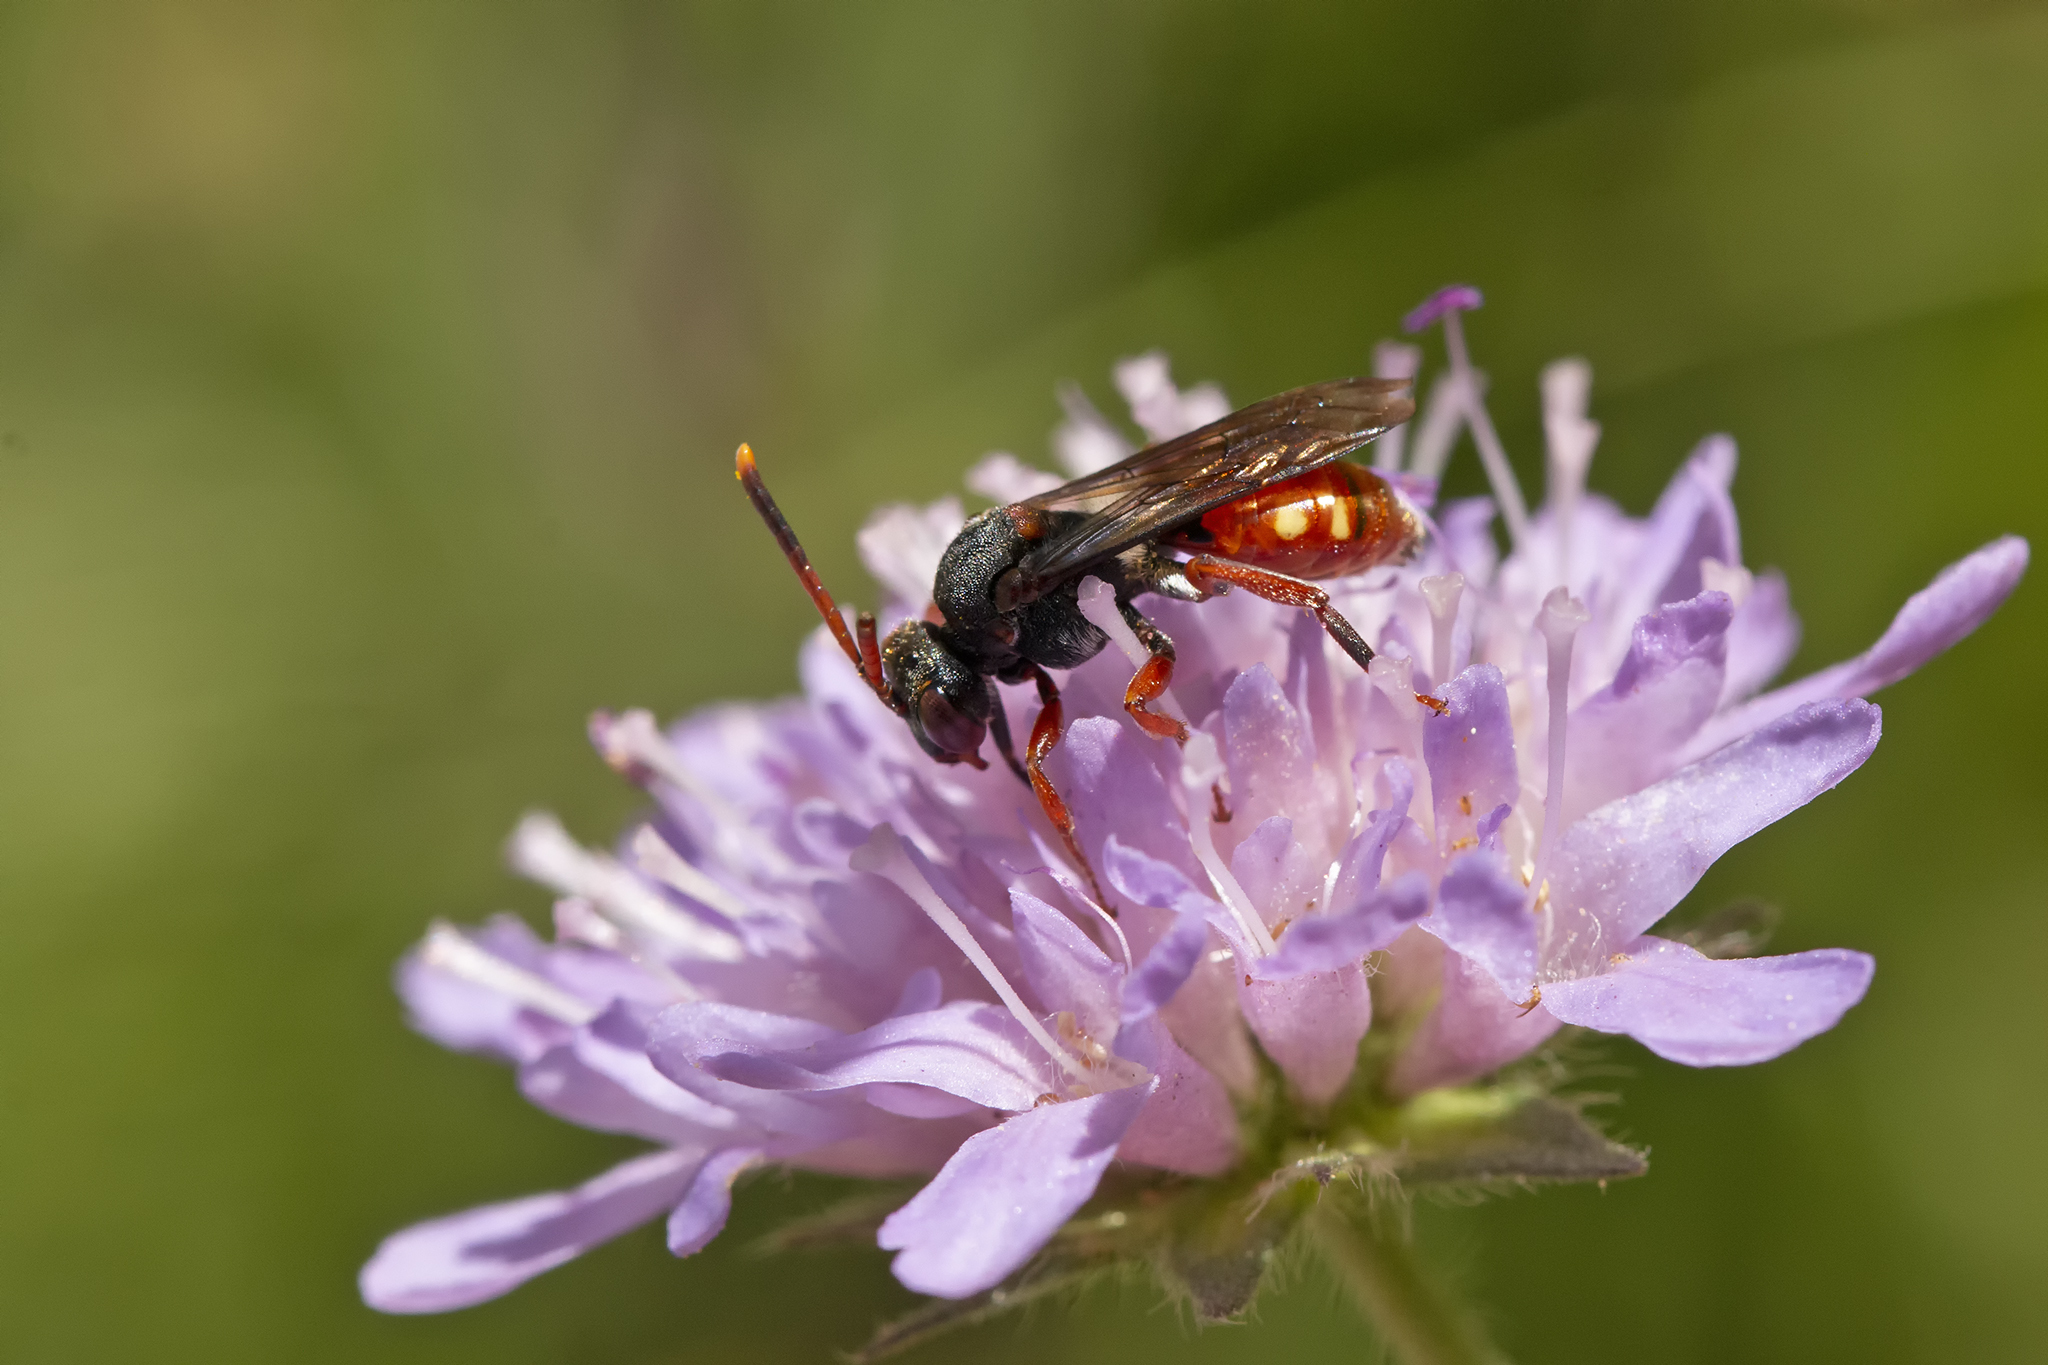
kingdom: Animalia
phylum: Arthropoda
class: Insecta
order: Hymenoptera
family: Apidae
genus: Nomada
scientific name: Nomada armata
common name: Armed nomad bee
